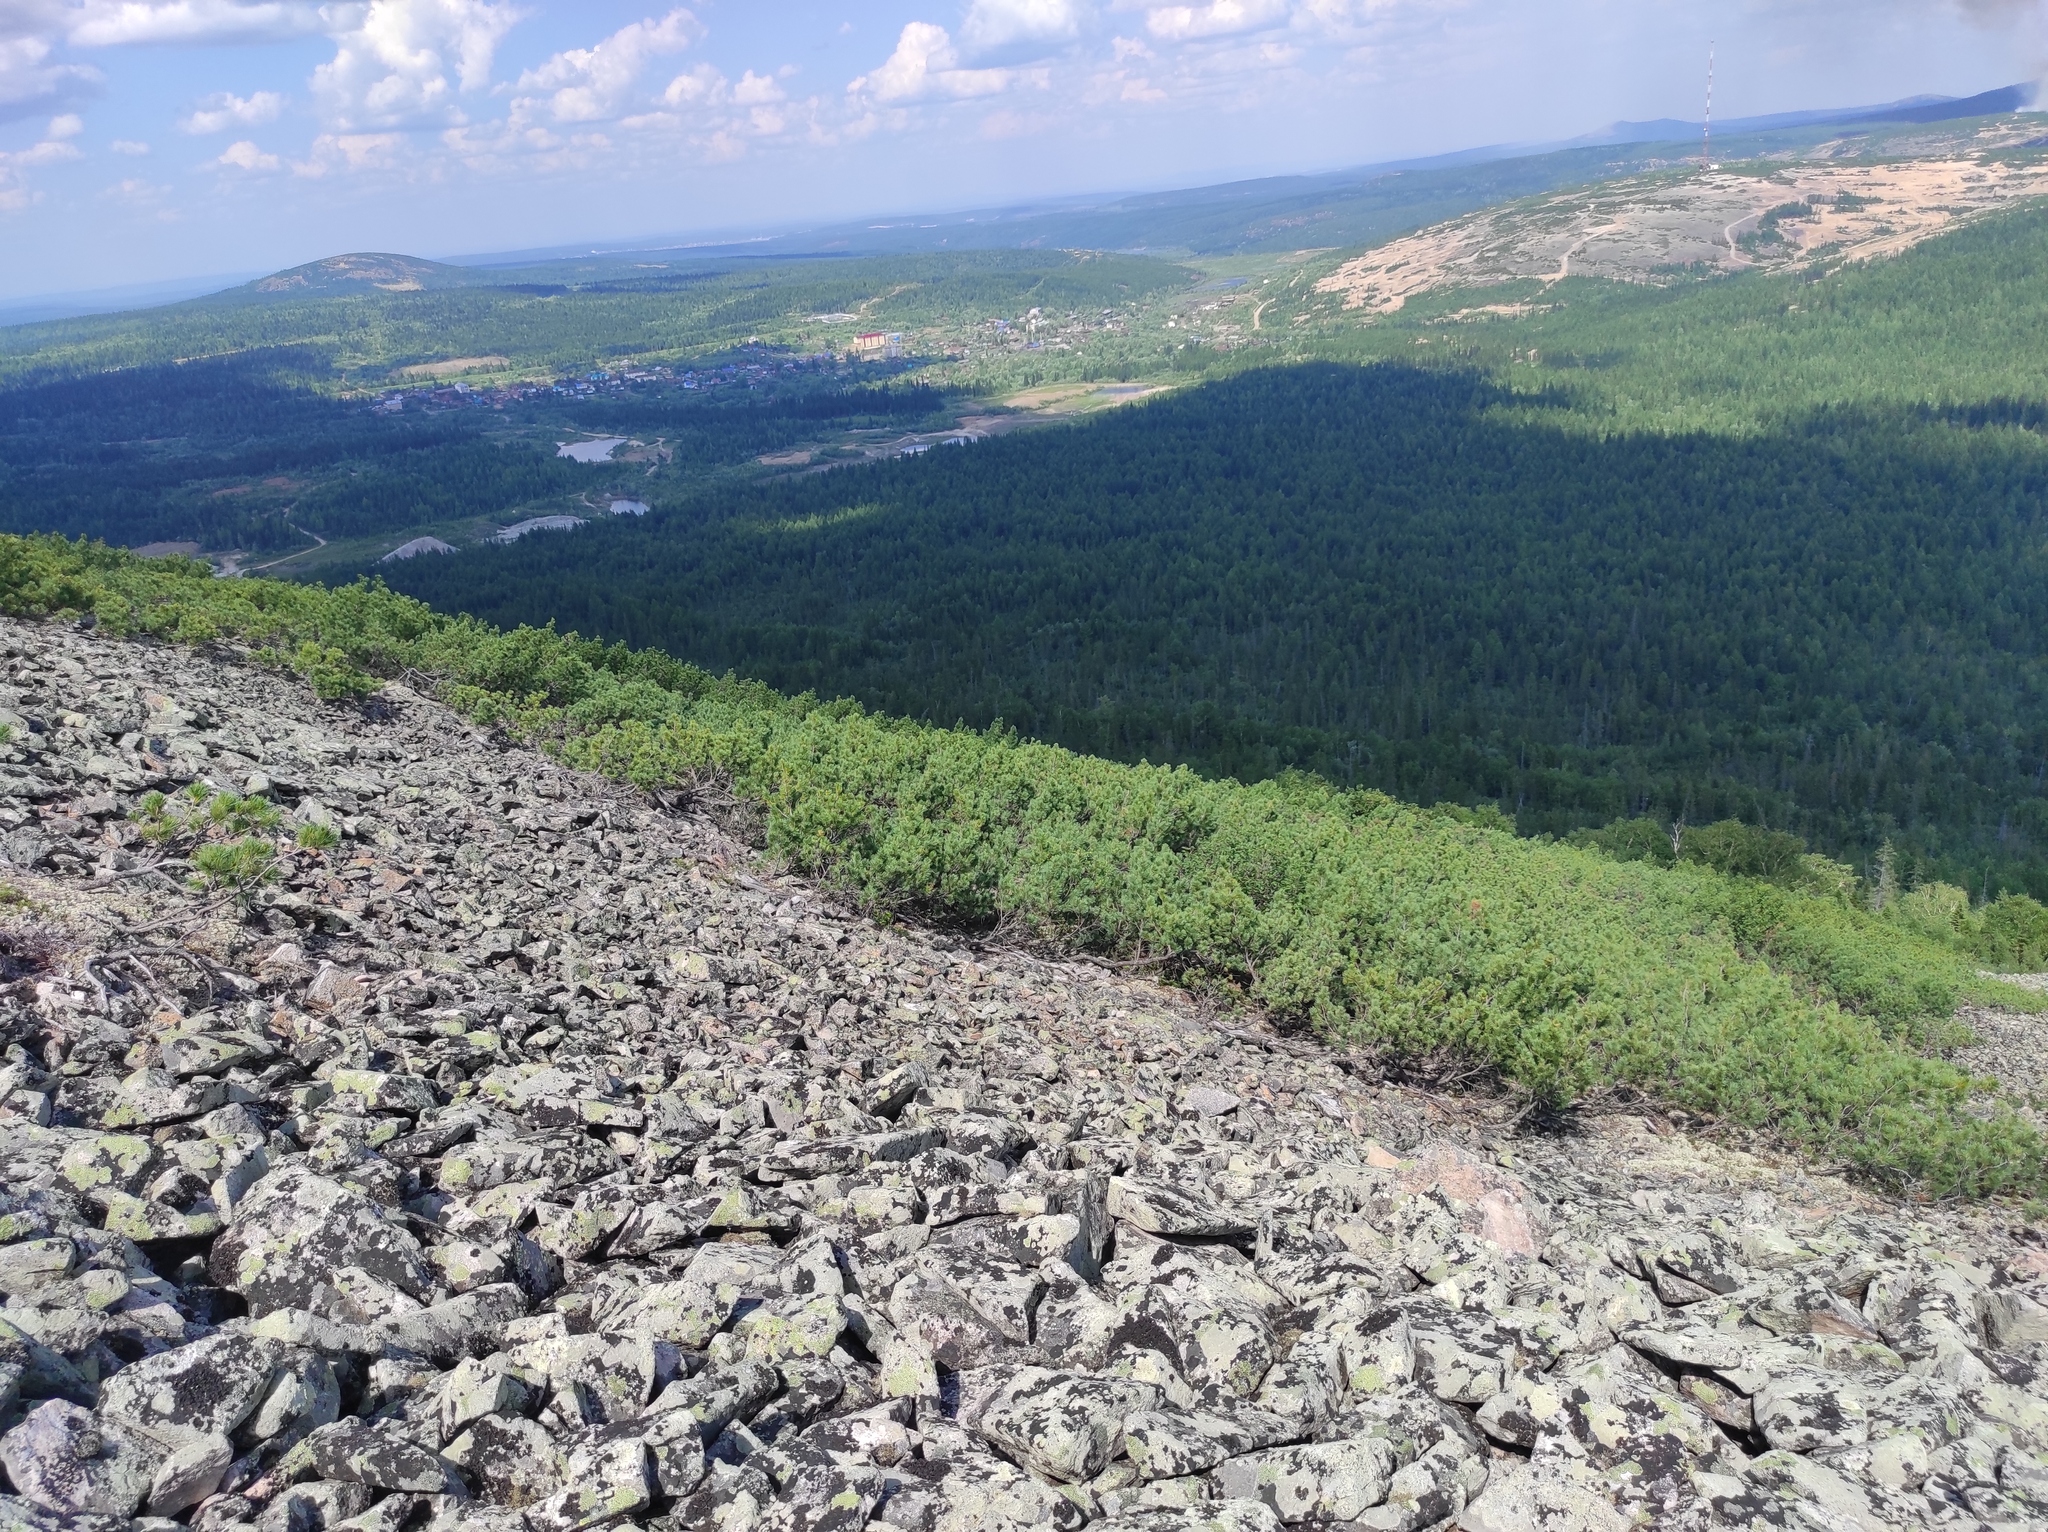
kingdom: Plantae
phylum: Tracheophyta
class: Pinopsida
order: Pinales
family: Pinaceae
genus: Pinus
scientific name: Pinus pumila
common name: Dwarf siberian pine
